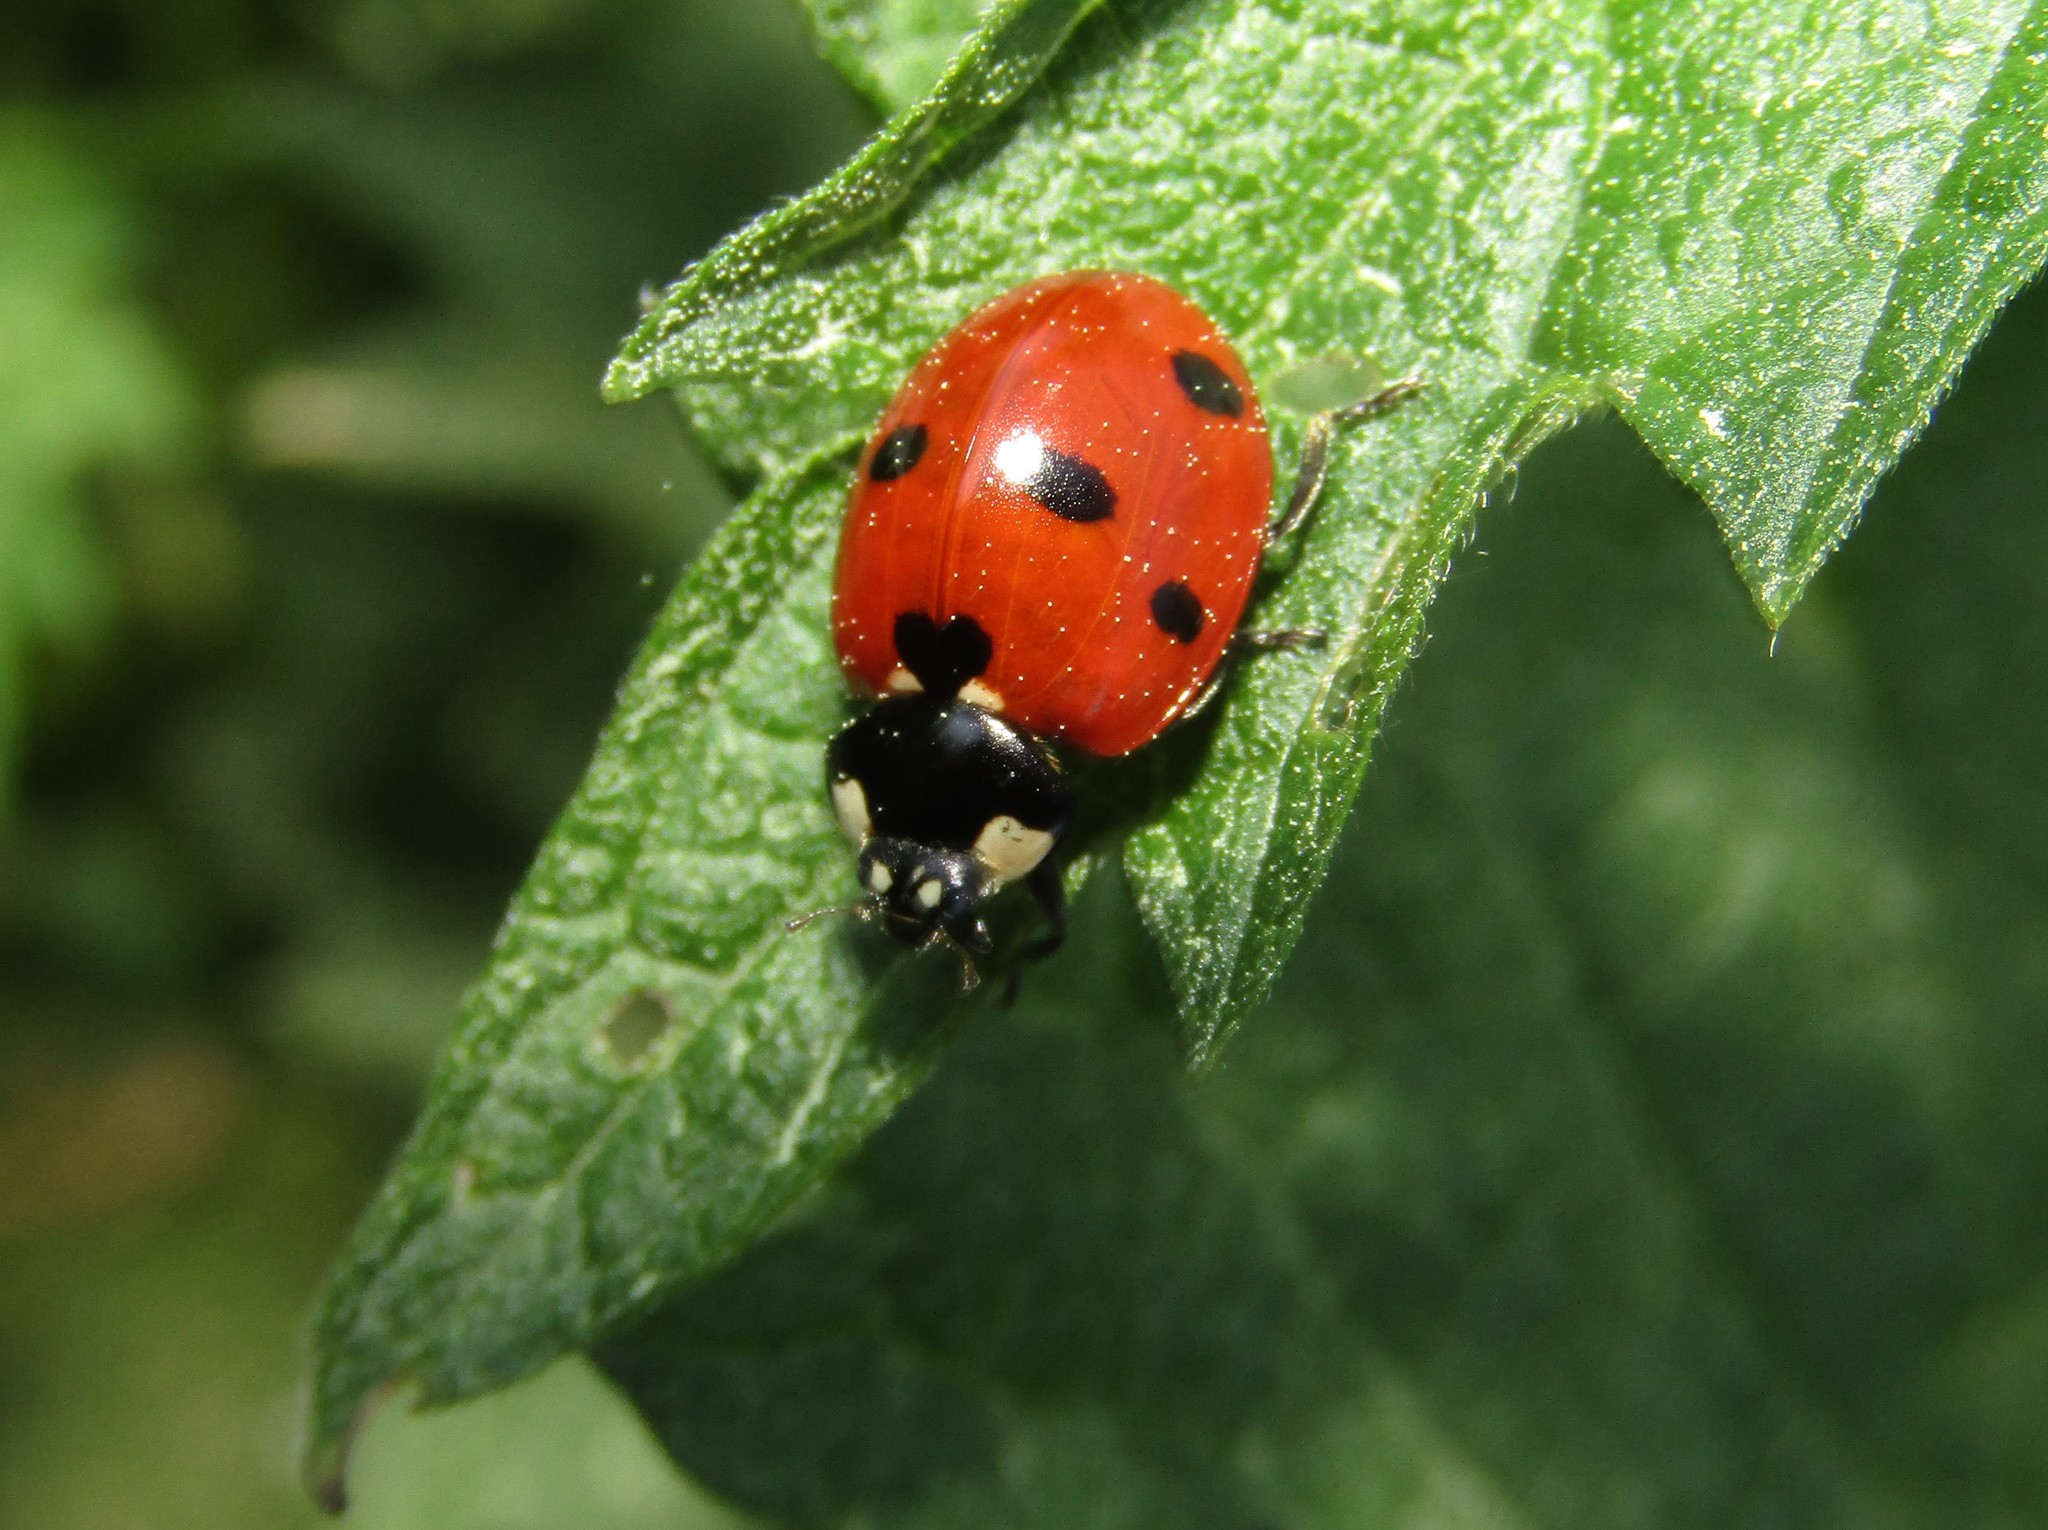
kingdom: Animalia
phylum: Arthropoda
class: Insecta
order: Coleoptera
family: Coccinellidae
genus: Coccinella
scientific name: Coccinella septempunctata
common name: Sevenspotted lady beetle
